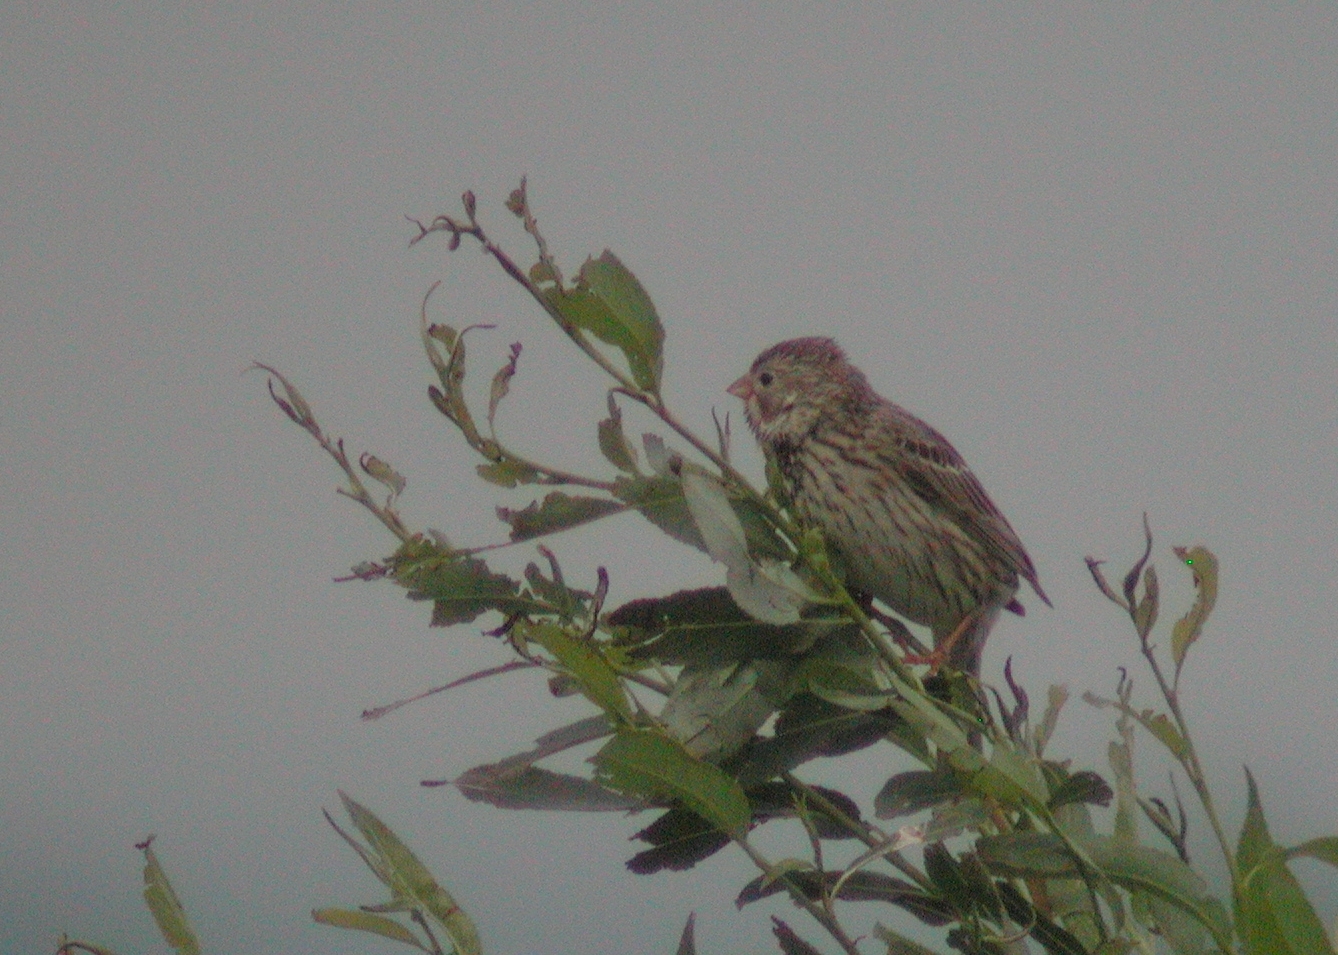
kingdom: Animalia
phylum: Chordata
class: Aves
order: Passeriformes
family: Emberizidae
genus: Emberiza
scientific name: Emberiza calandra
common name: Corn bunting
